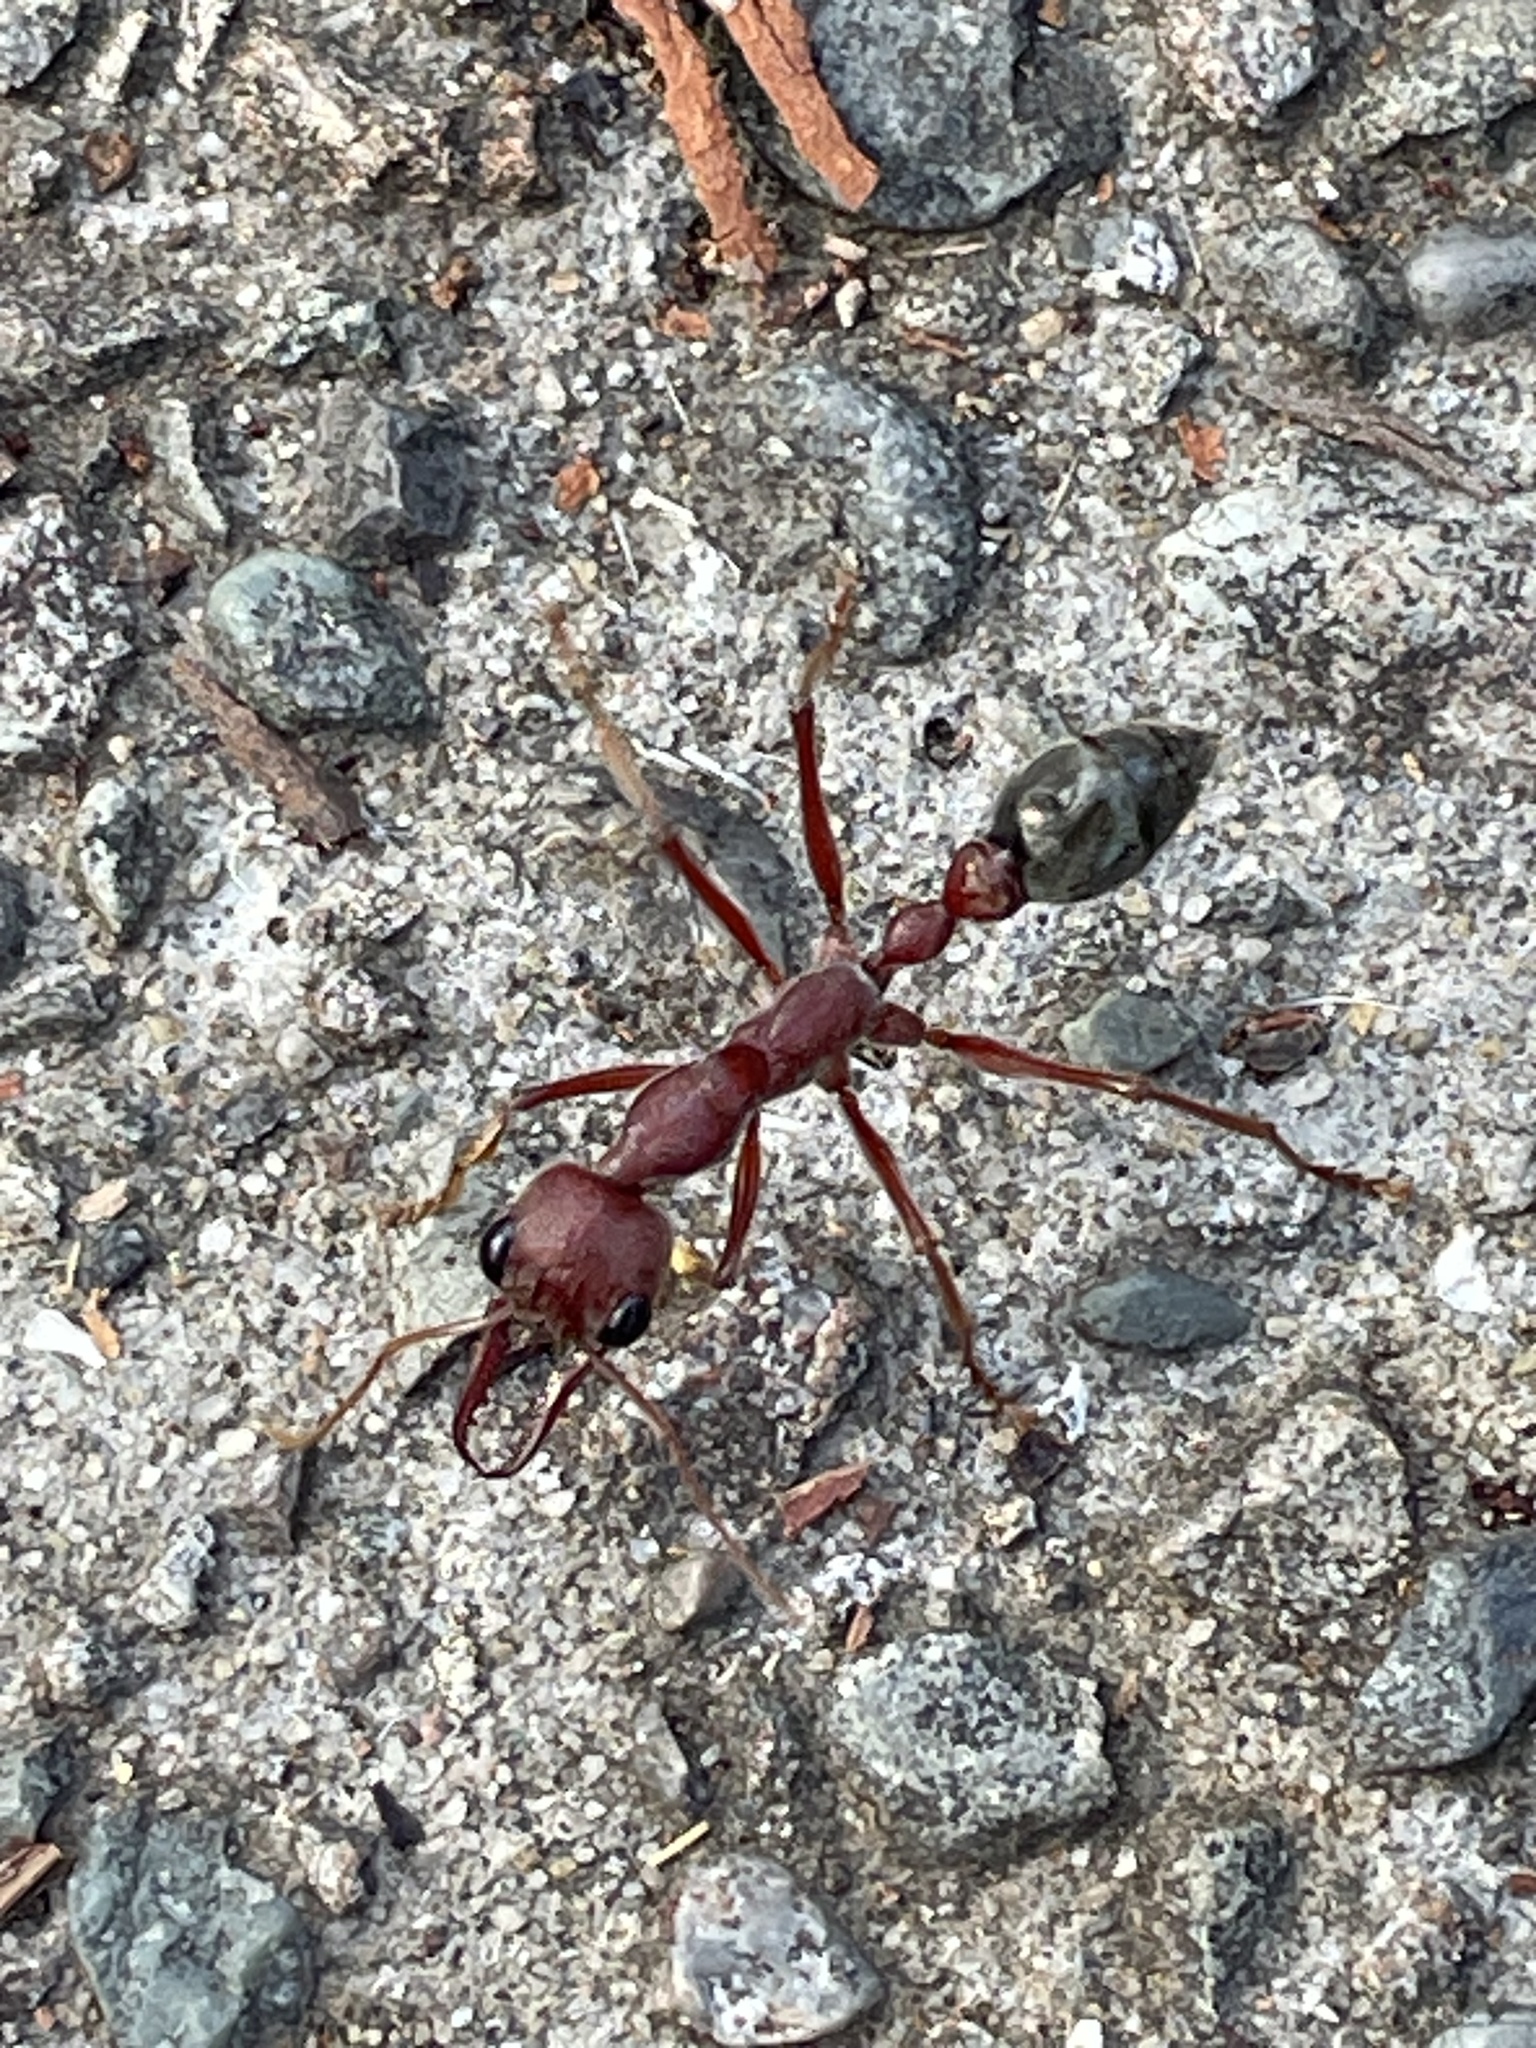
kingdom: Animalia
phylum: Arthropoda
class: Insecta
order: Hymenoptera
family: Formicidae
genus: Myrmecia
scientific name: Myrmecia brevinoda
